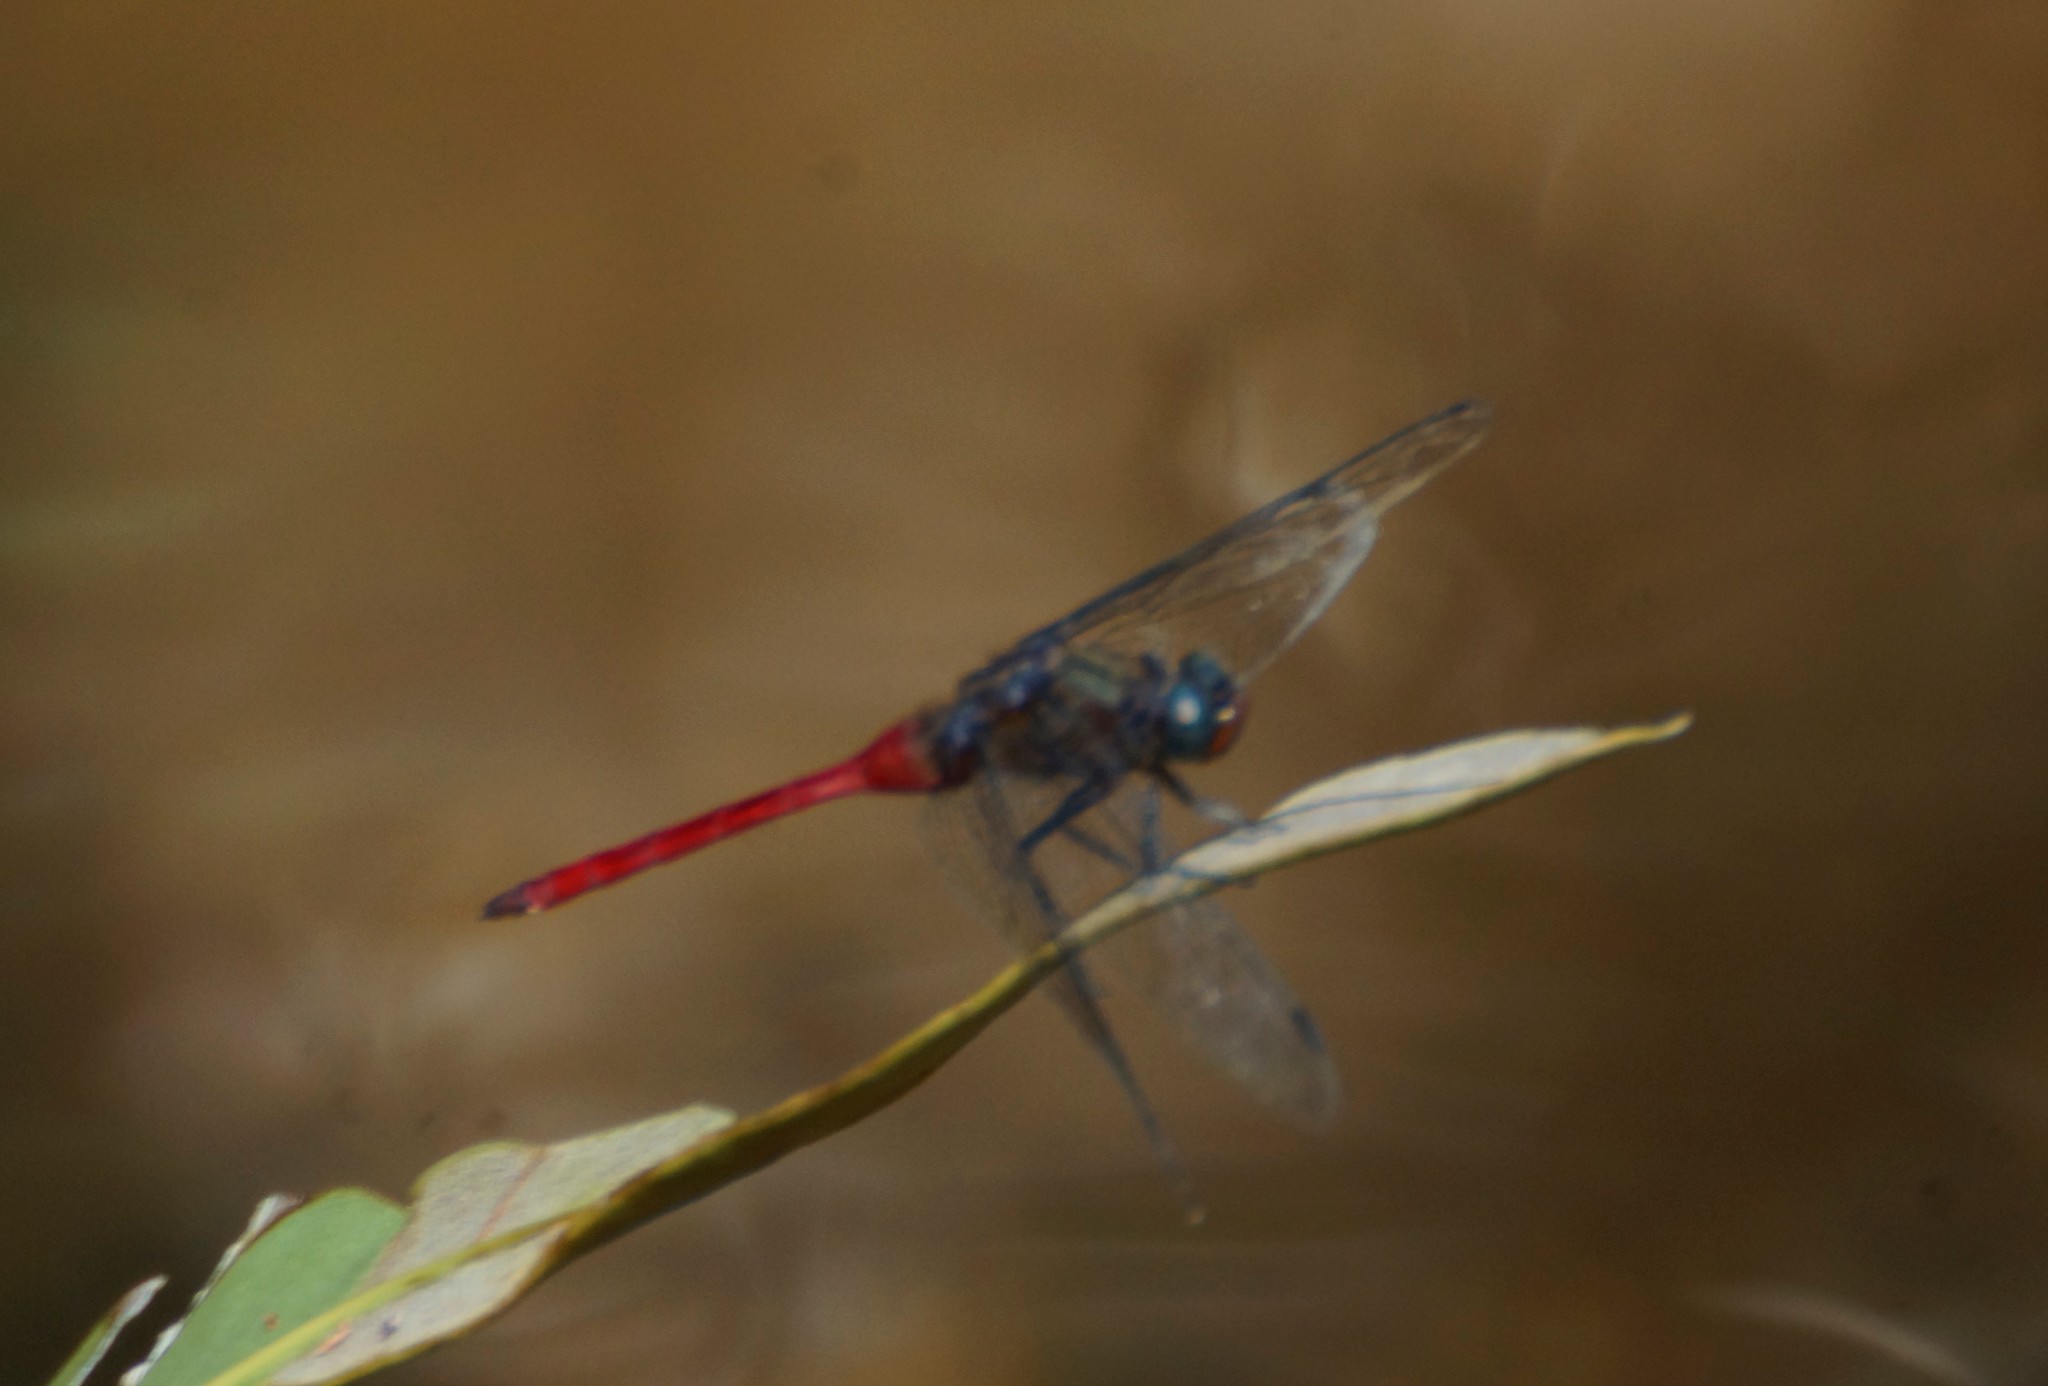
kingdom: Animalia
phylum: Arthropoda
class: Insecta
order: Odonata
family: Libellulidae
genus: Orthetrum
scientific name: Orthetrum villosovittatum
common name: Firery skimmer
